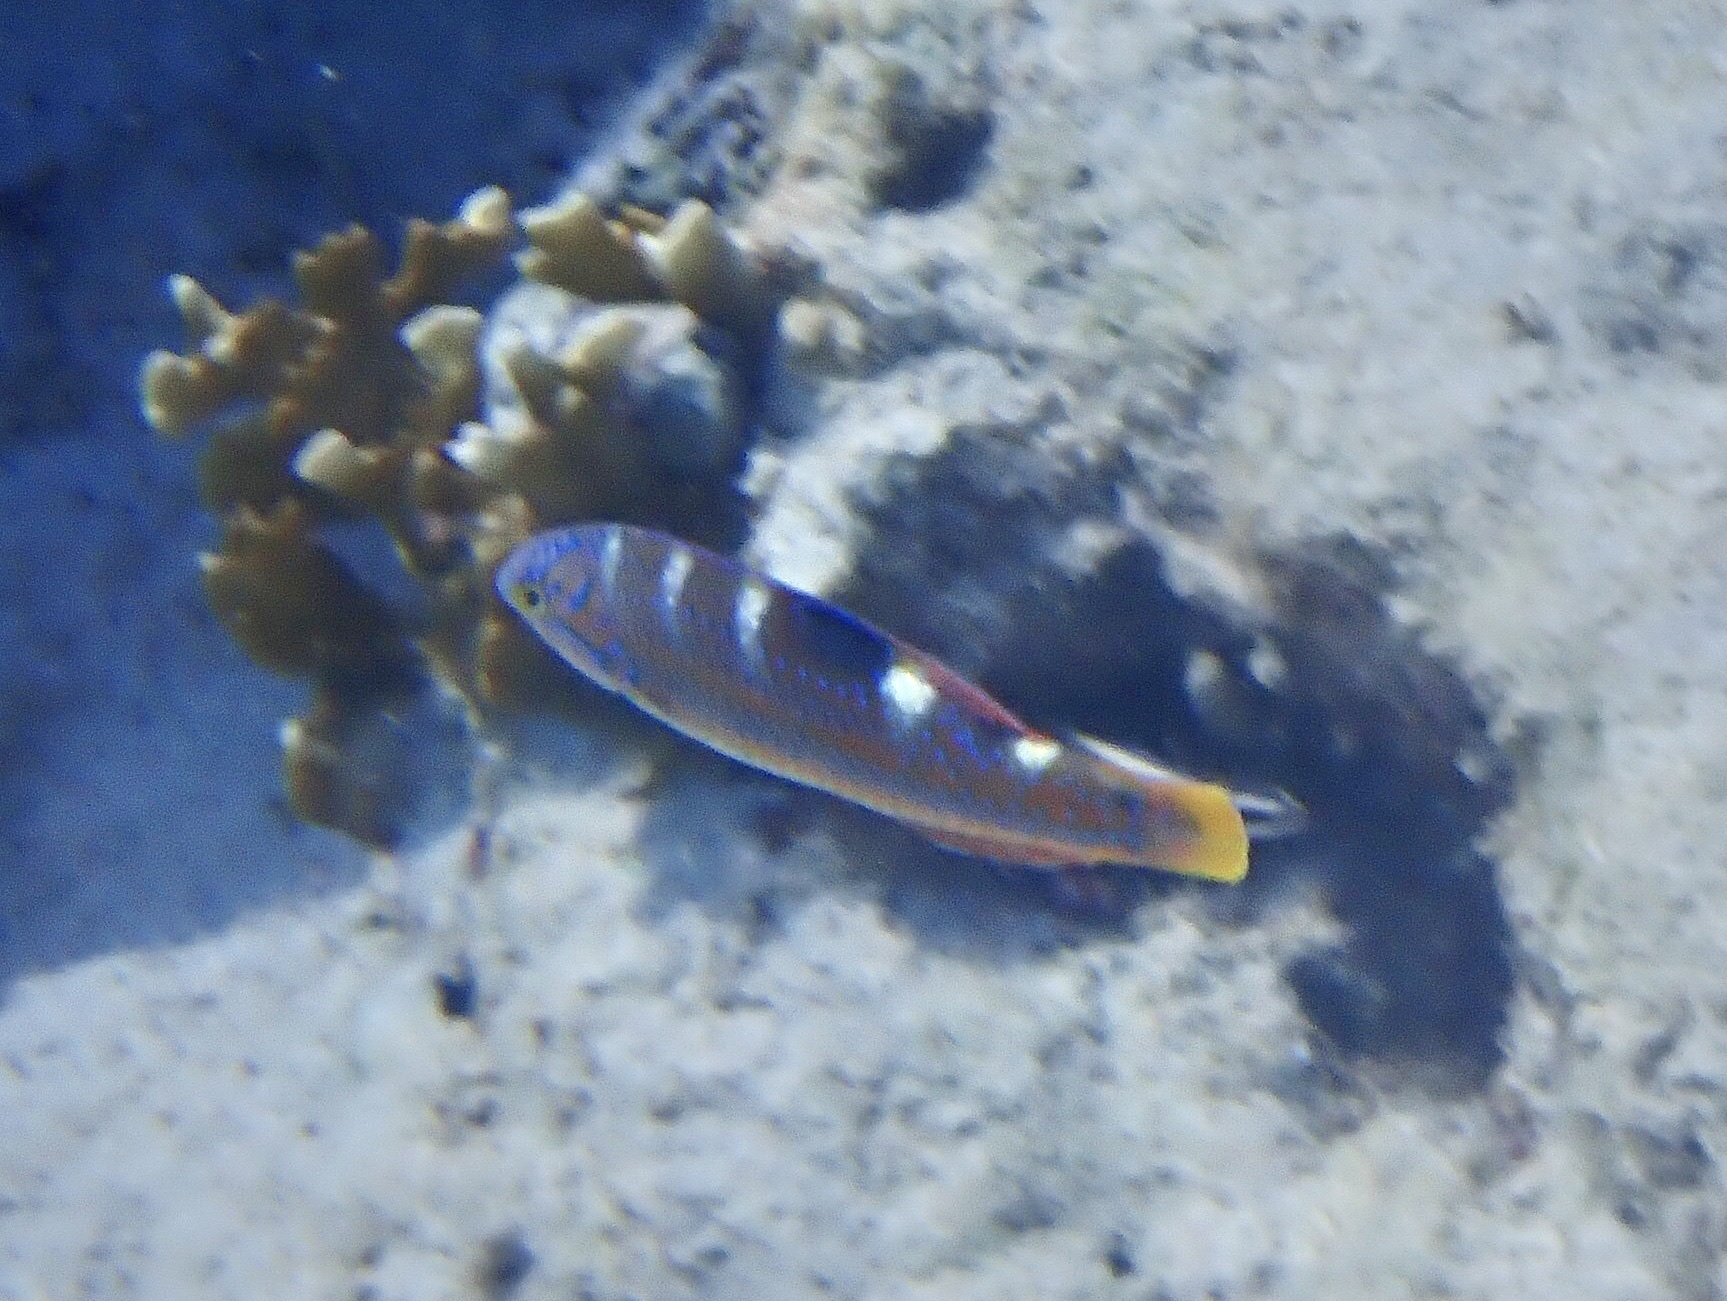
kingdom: Animalia
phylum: Chordata
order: Perciformes
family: Labridae
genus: Halichoeres
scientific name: Halichoeres radiatus
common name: Puddingwife
